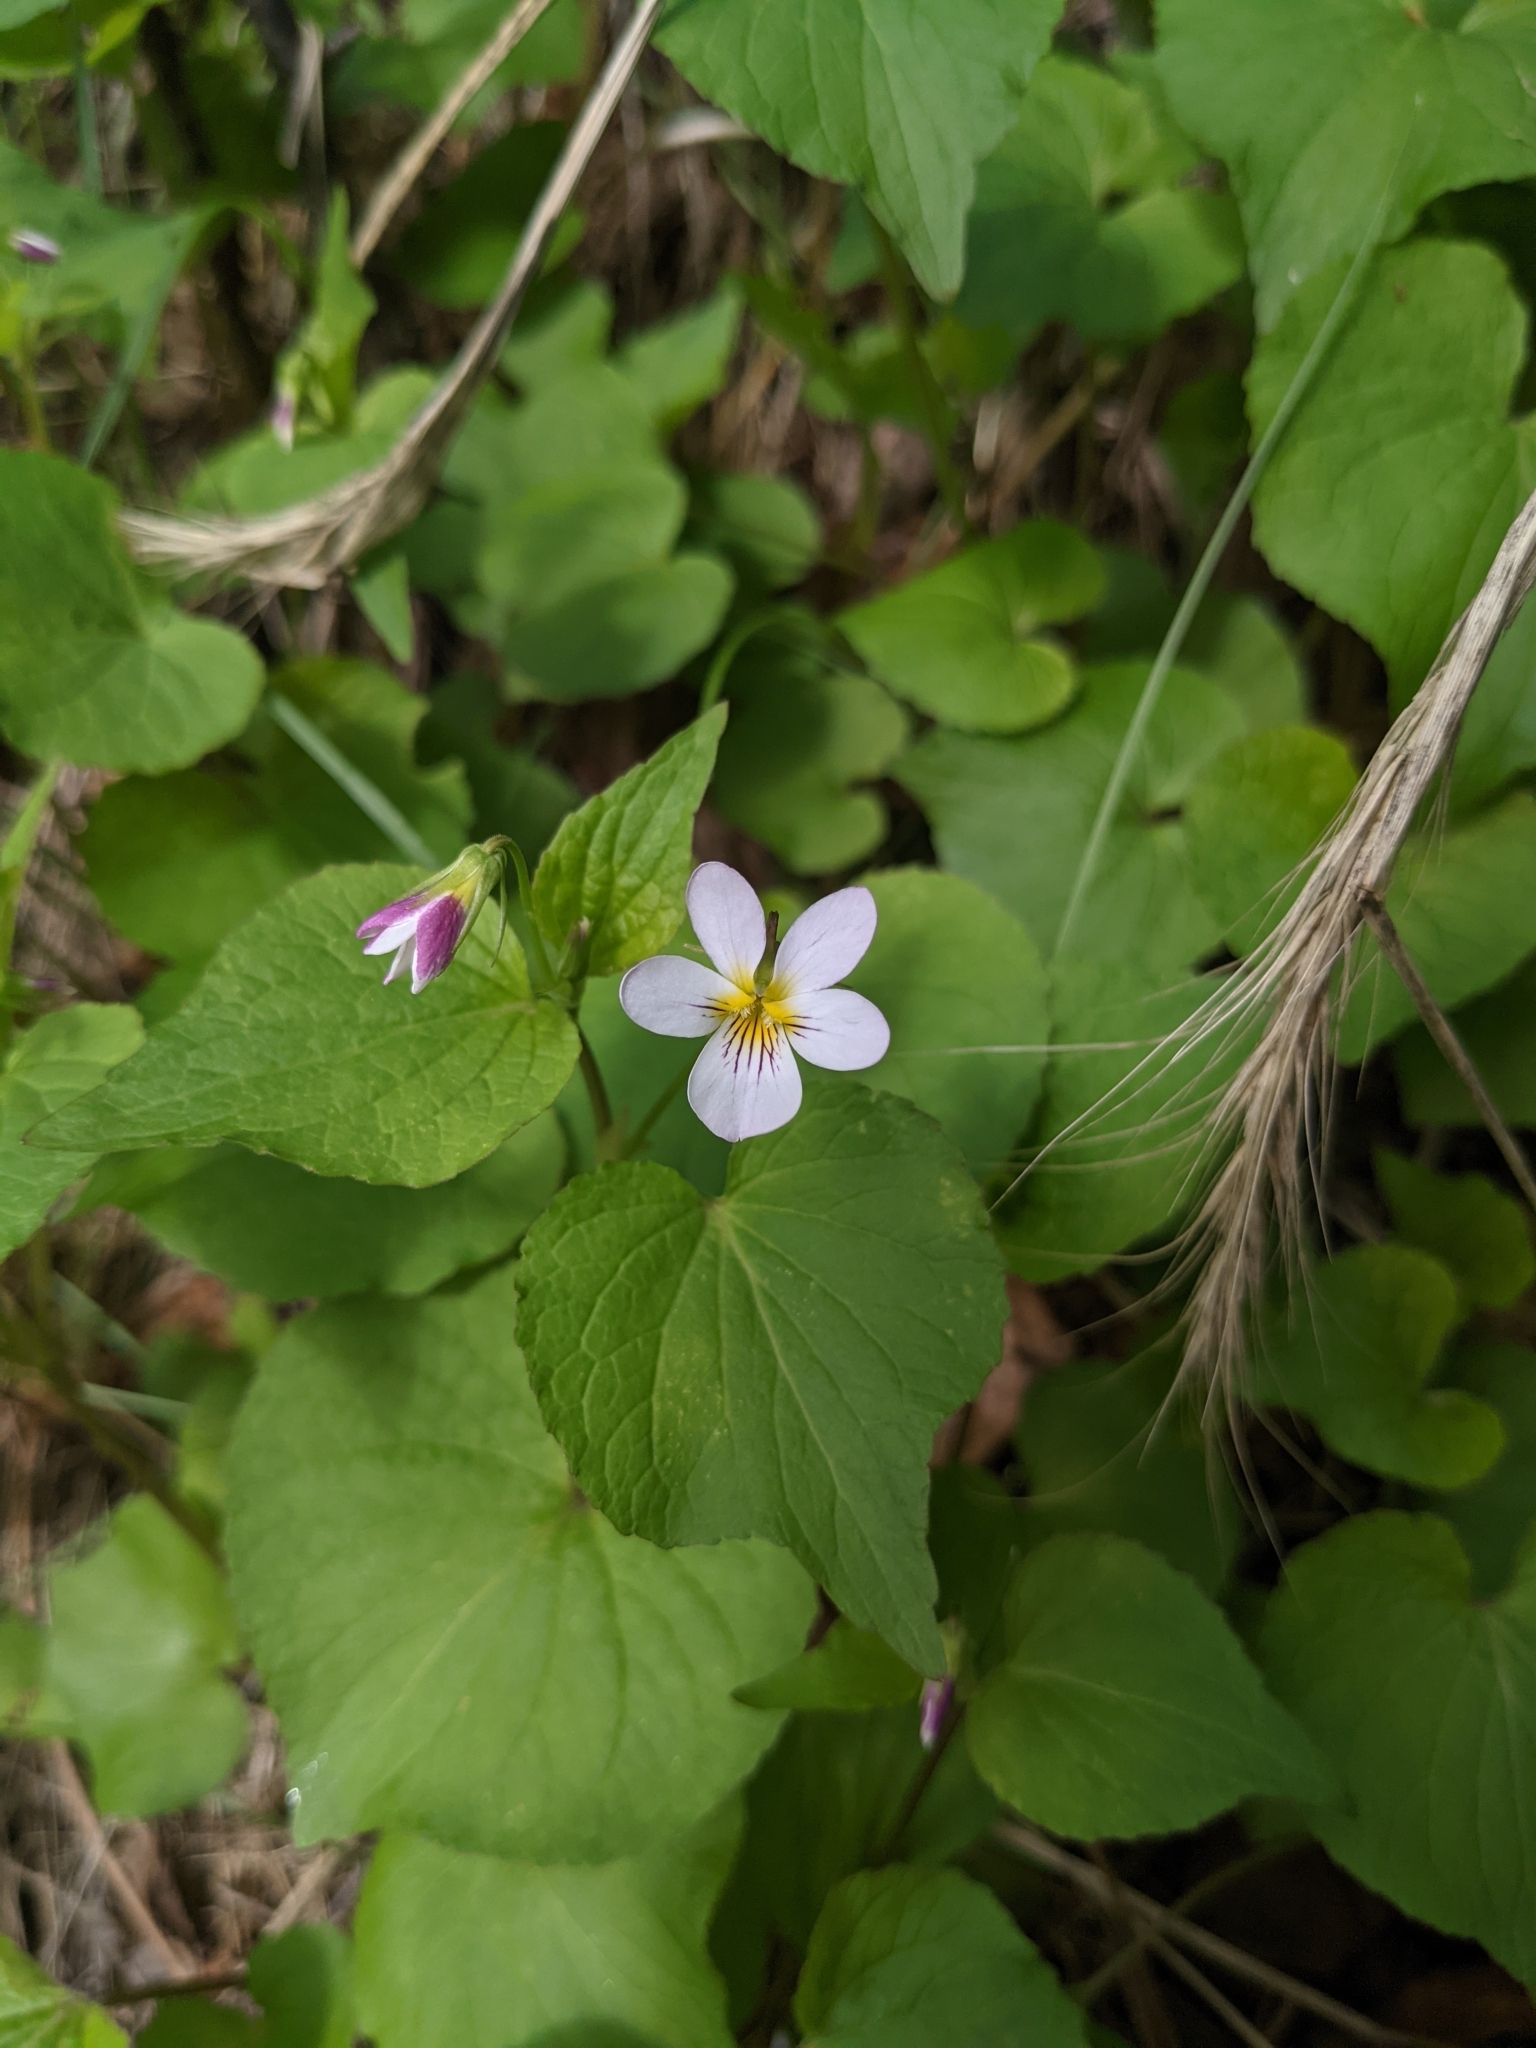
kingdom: Plantae
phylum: Tracheophyta
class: Magnoliopsida
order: Malpighiales
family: Violaceae
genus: Viola
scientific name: Viola canadensis
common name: Canada violet
